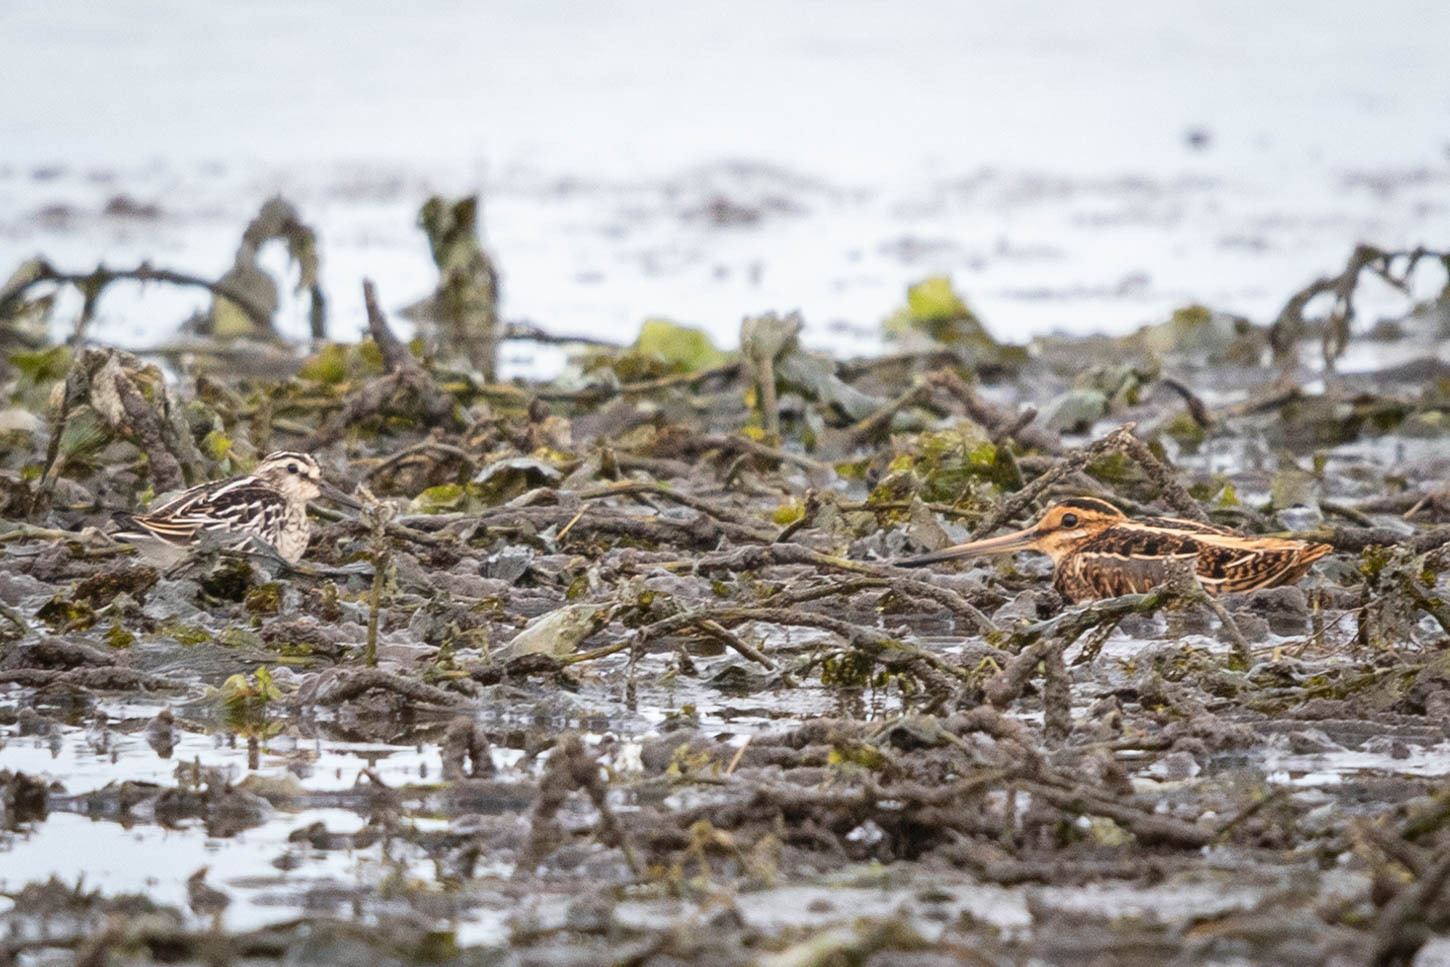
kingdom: Animalia
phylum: Chordata
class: Aves
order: Charadriiformes
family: Scolopacidae
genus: Calidris
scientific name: Calidris falcinellus
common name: Broad-billed sandpiper
